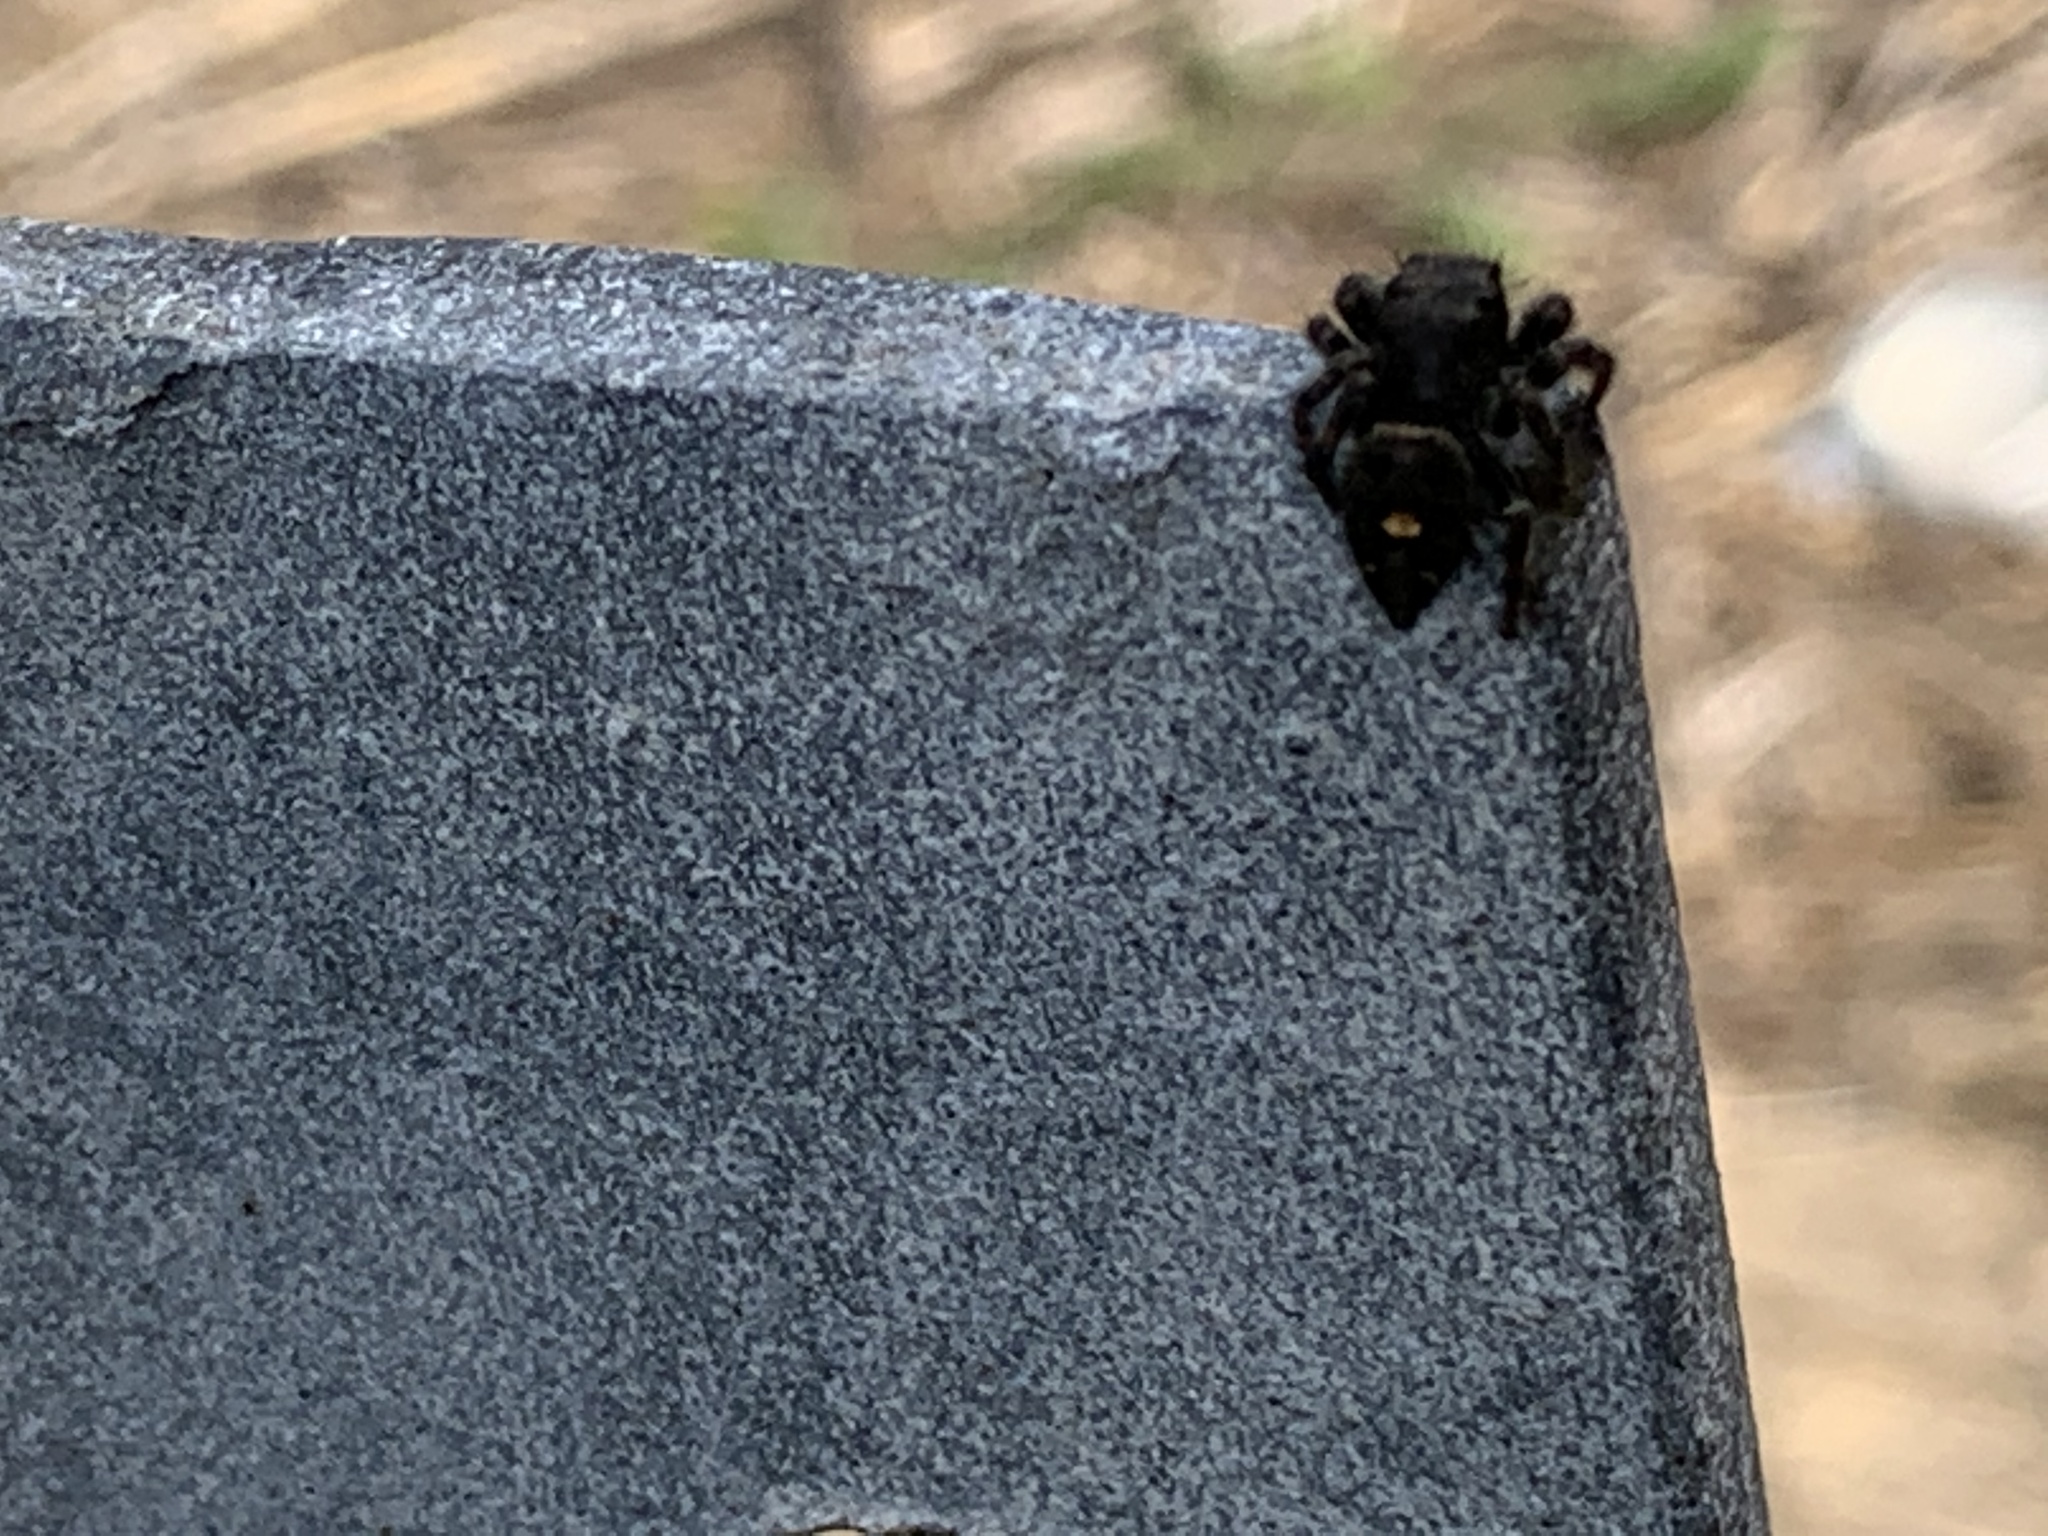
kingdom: Animalia
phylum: Arthropoda
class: Arachnida
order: Araneae
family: Salticidae
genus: Phidippus
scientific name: Phidippus audax
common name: Bold jumper
